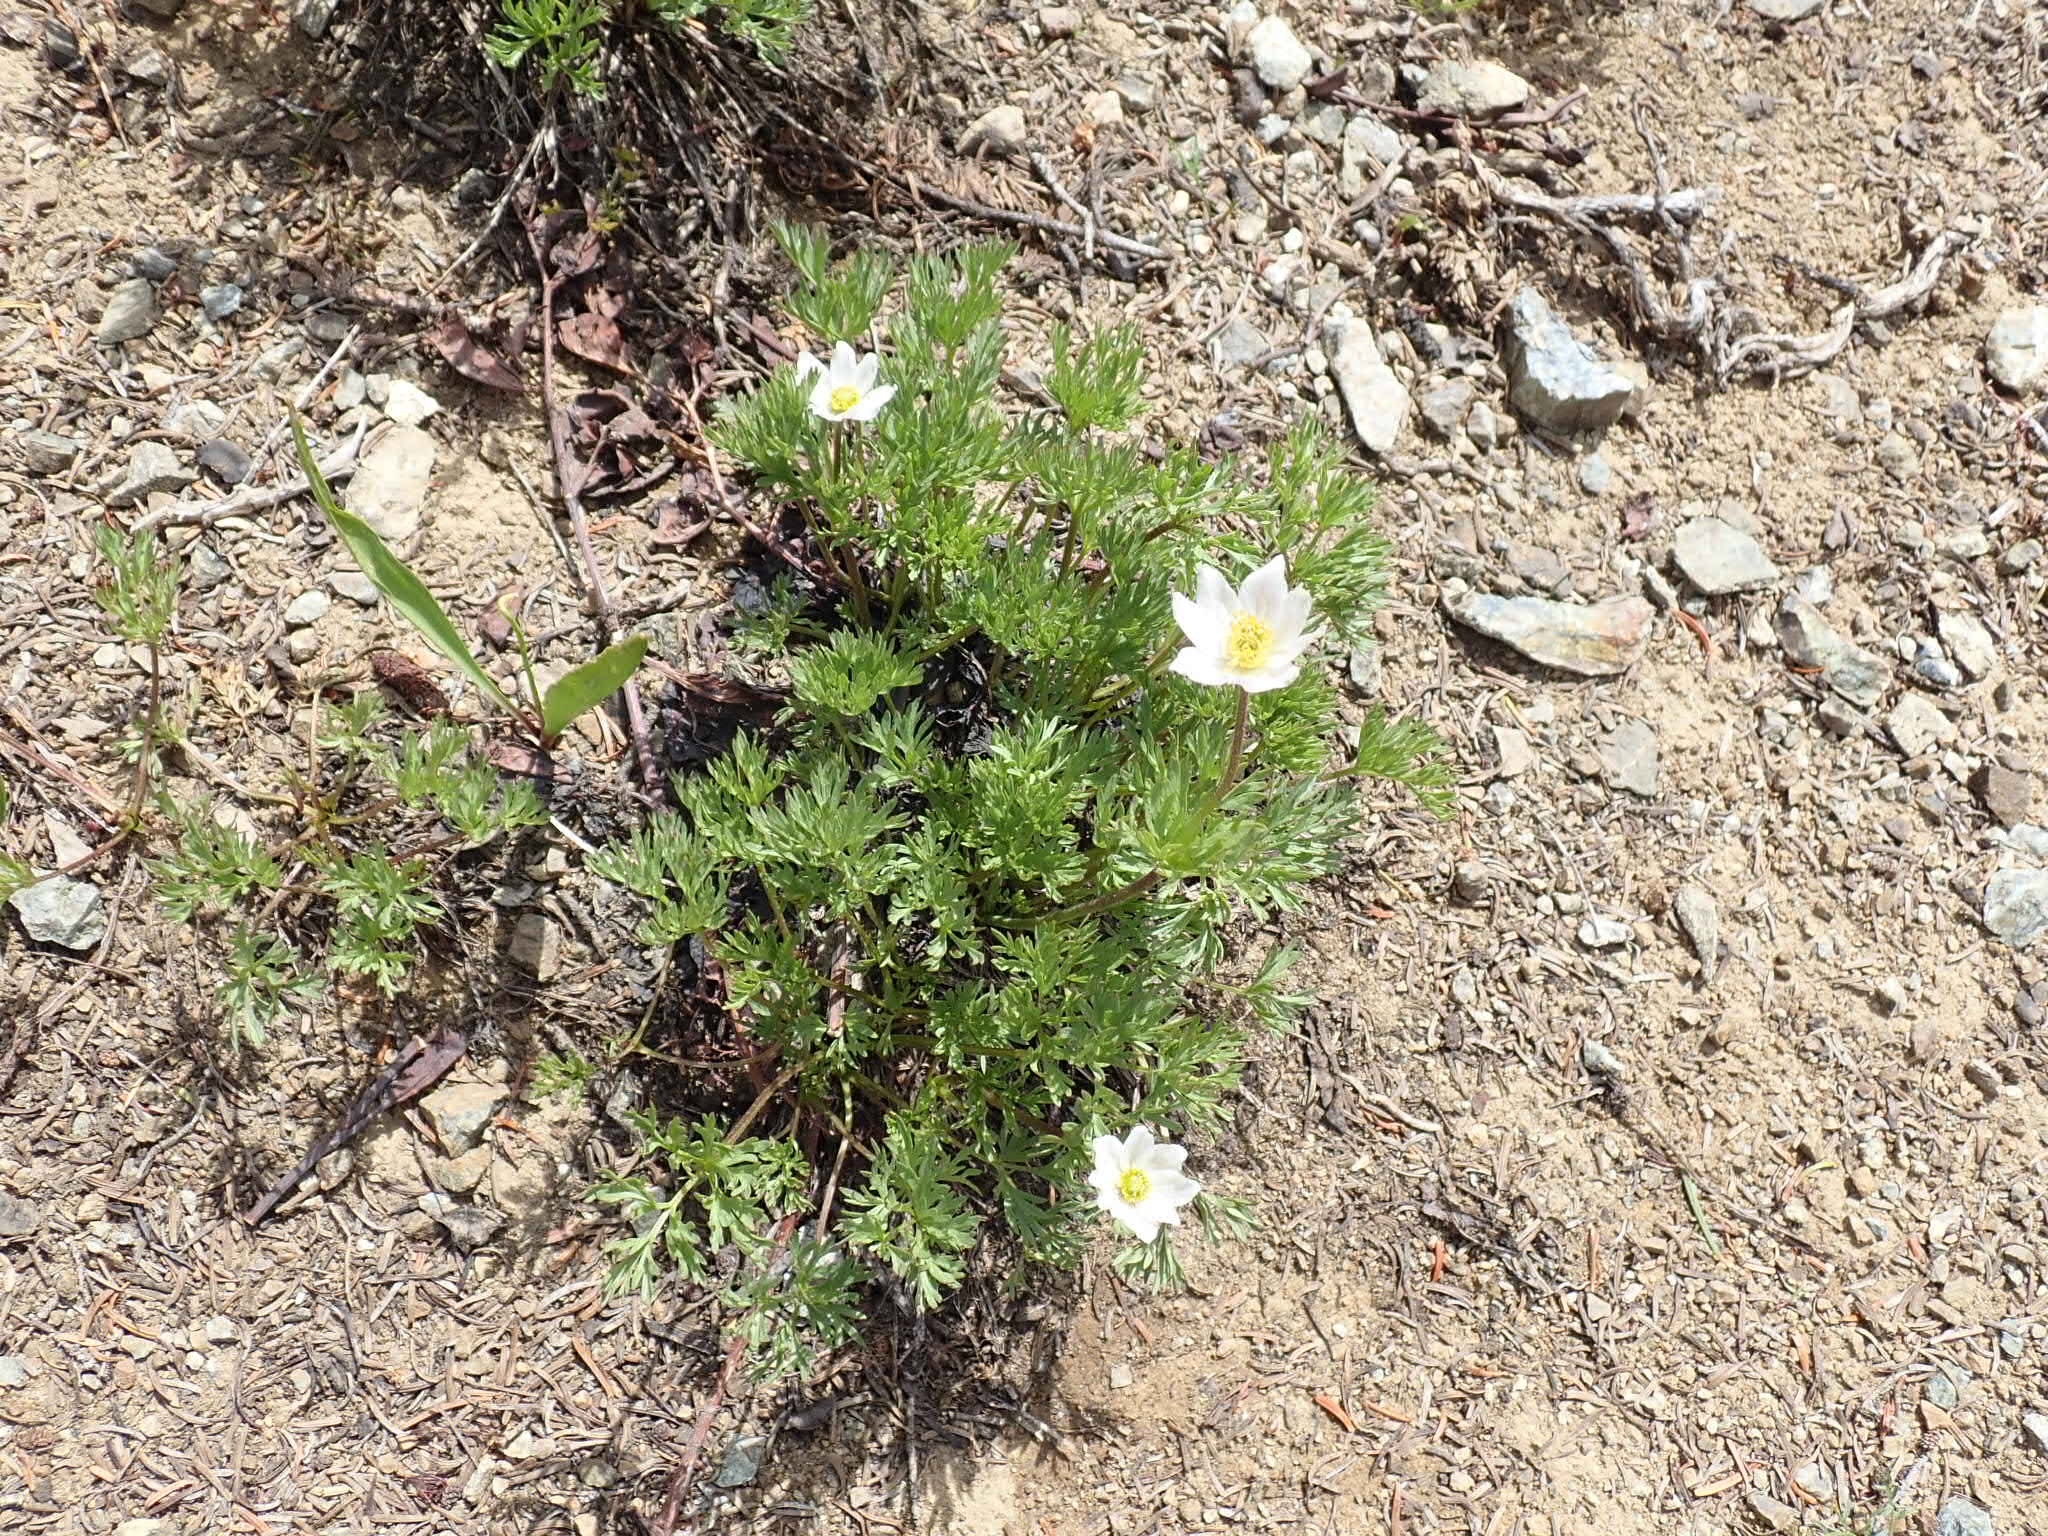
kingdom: Plantae
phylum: Tracheophyta
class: Magnoliopsida
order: Ranunculales
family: Ranunculaceae
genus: Anemone
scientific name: Anemone drummondii
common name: Drummond's anemone
